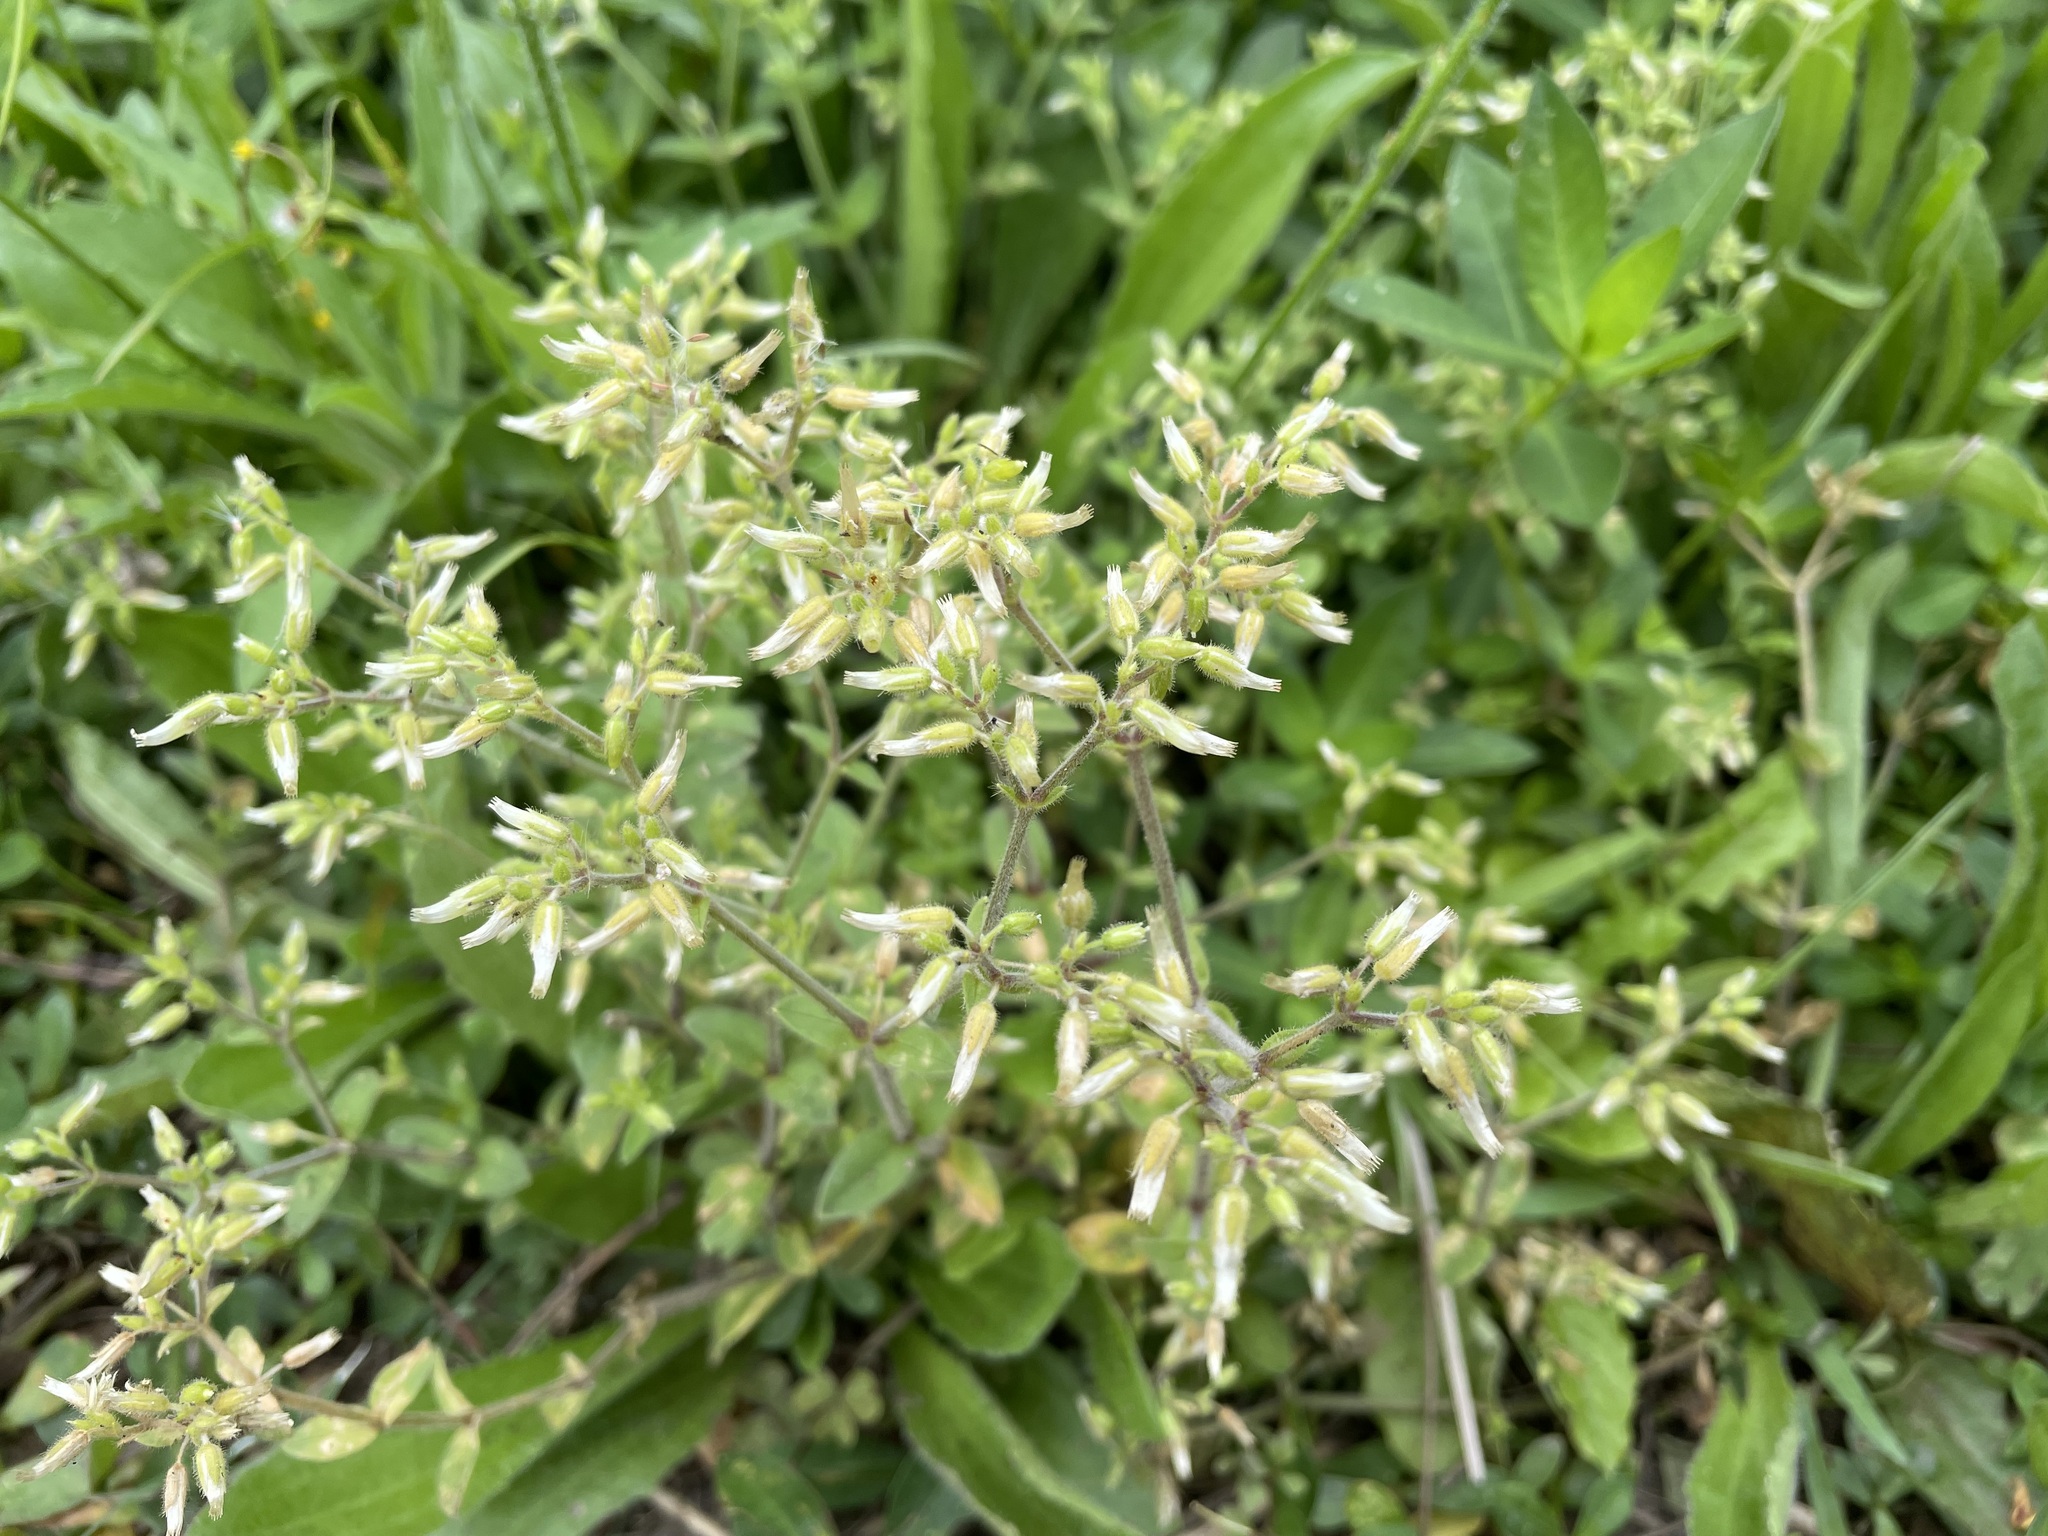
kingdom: Plantae
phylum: Tracheophyta
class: Magnoliopsida
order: Caryophyllales
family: Caryophyllaceae
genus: Cerastium
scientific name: Cerastium glomeratum
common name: Sticky chickweed
